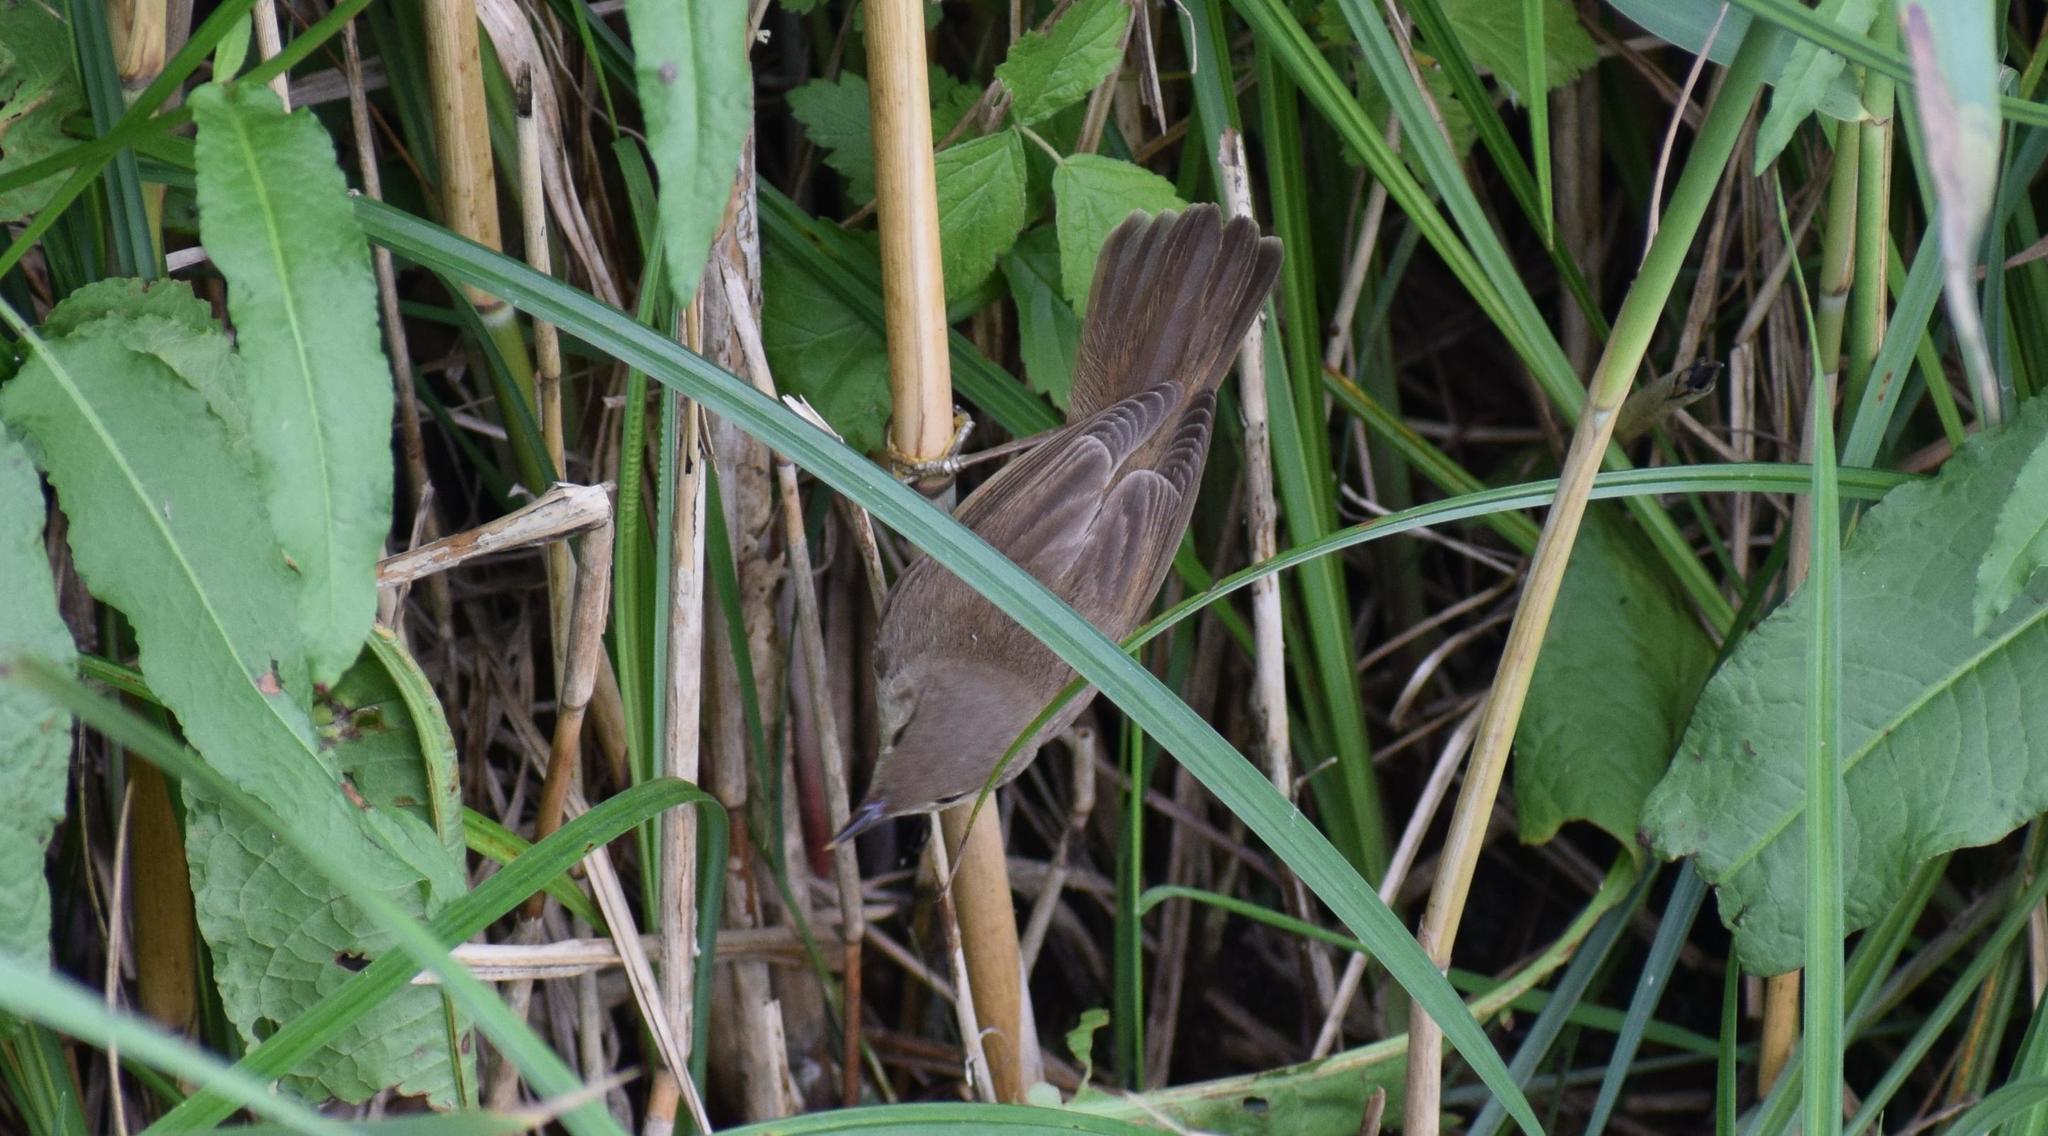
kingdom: Animalia
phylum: Chordata
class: Aves
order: Passeriformes
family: Acrocephalidae
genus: Acrocephalus
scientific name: Acrocephalus scirpaceus
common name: Eurasian reed warbler
